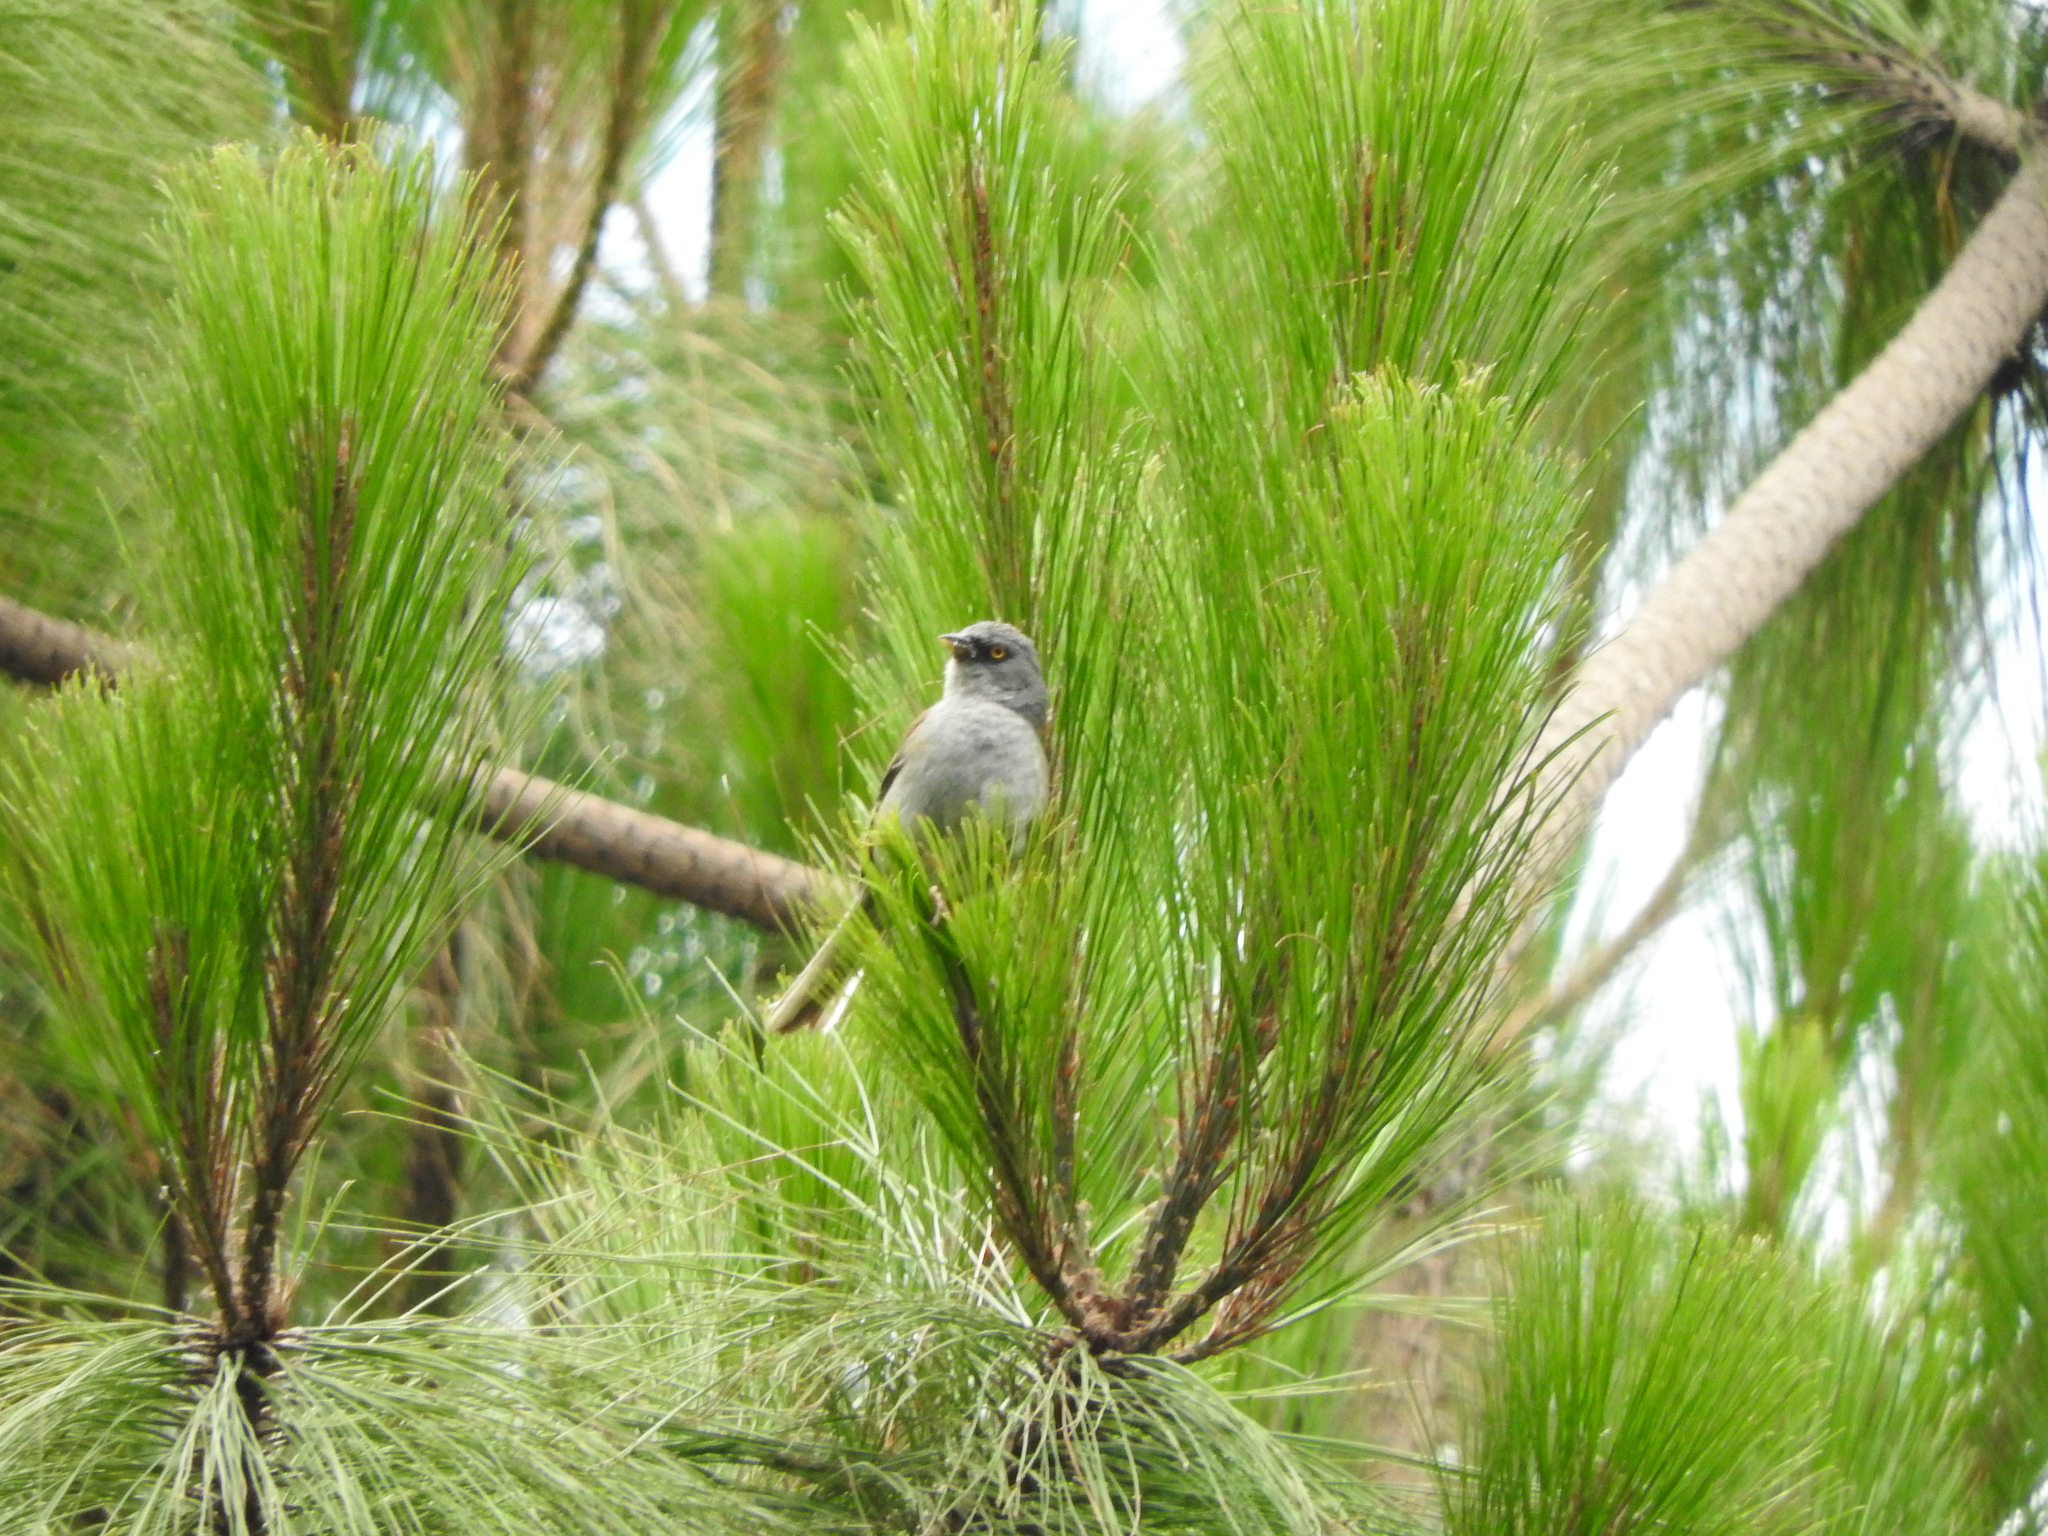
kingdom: Animalia
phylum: Chordata
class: Aves
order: Passeriformes
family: Passerellidae
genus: Junco
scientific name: Junco phaeonotus
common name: Yellow-eyed junco
